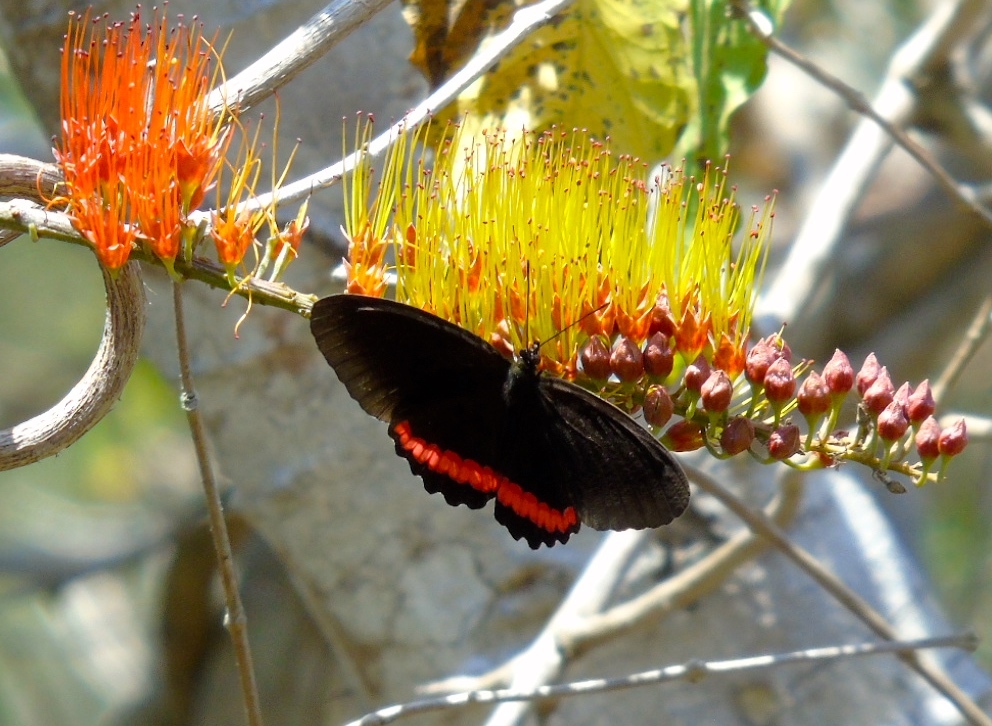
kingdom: Animalia
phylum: Arthropoda
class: Insecta
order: Lepidoptera
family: Nymphalidae
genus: Biblis
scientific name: Biblis aganisa
